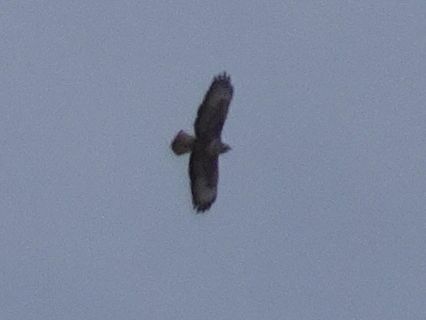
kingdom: Animalia
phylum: Chordata
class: Aves
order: Accipitriformes
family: Accipitridae
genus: Buteo
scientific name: Buteo buteo
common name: Common buzzard
